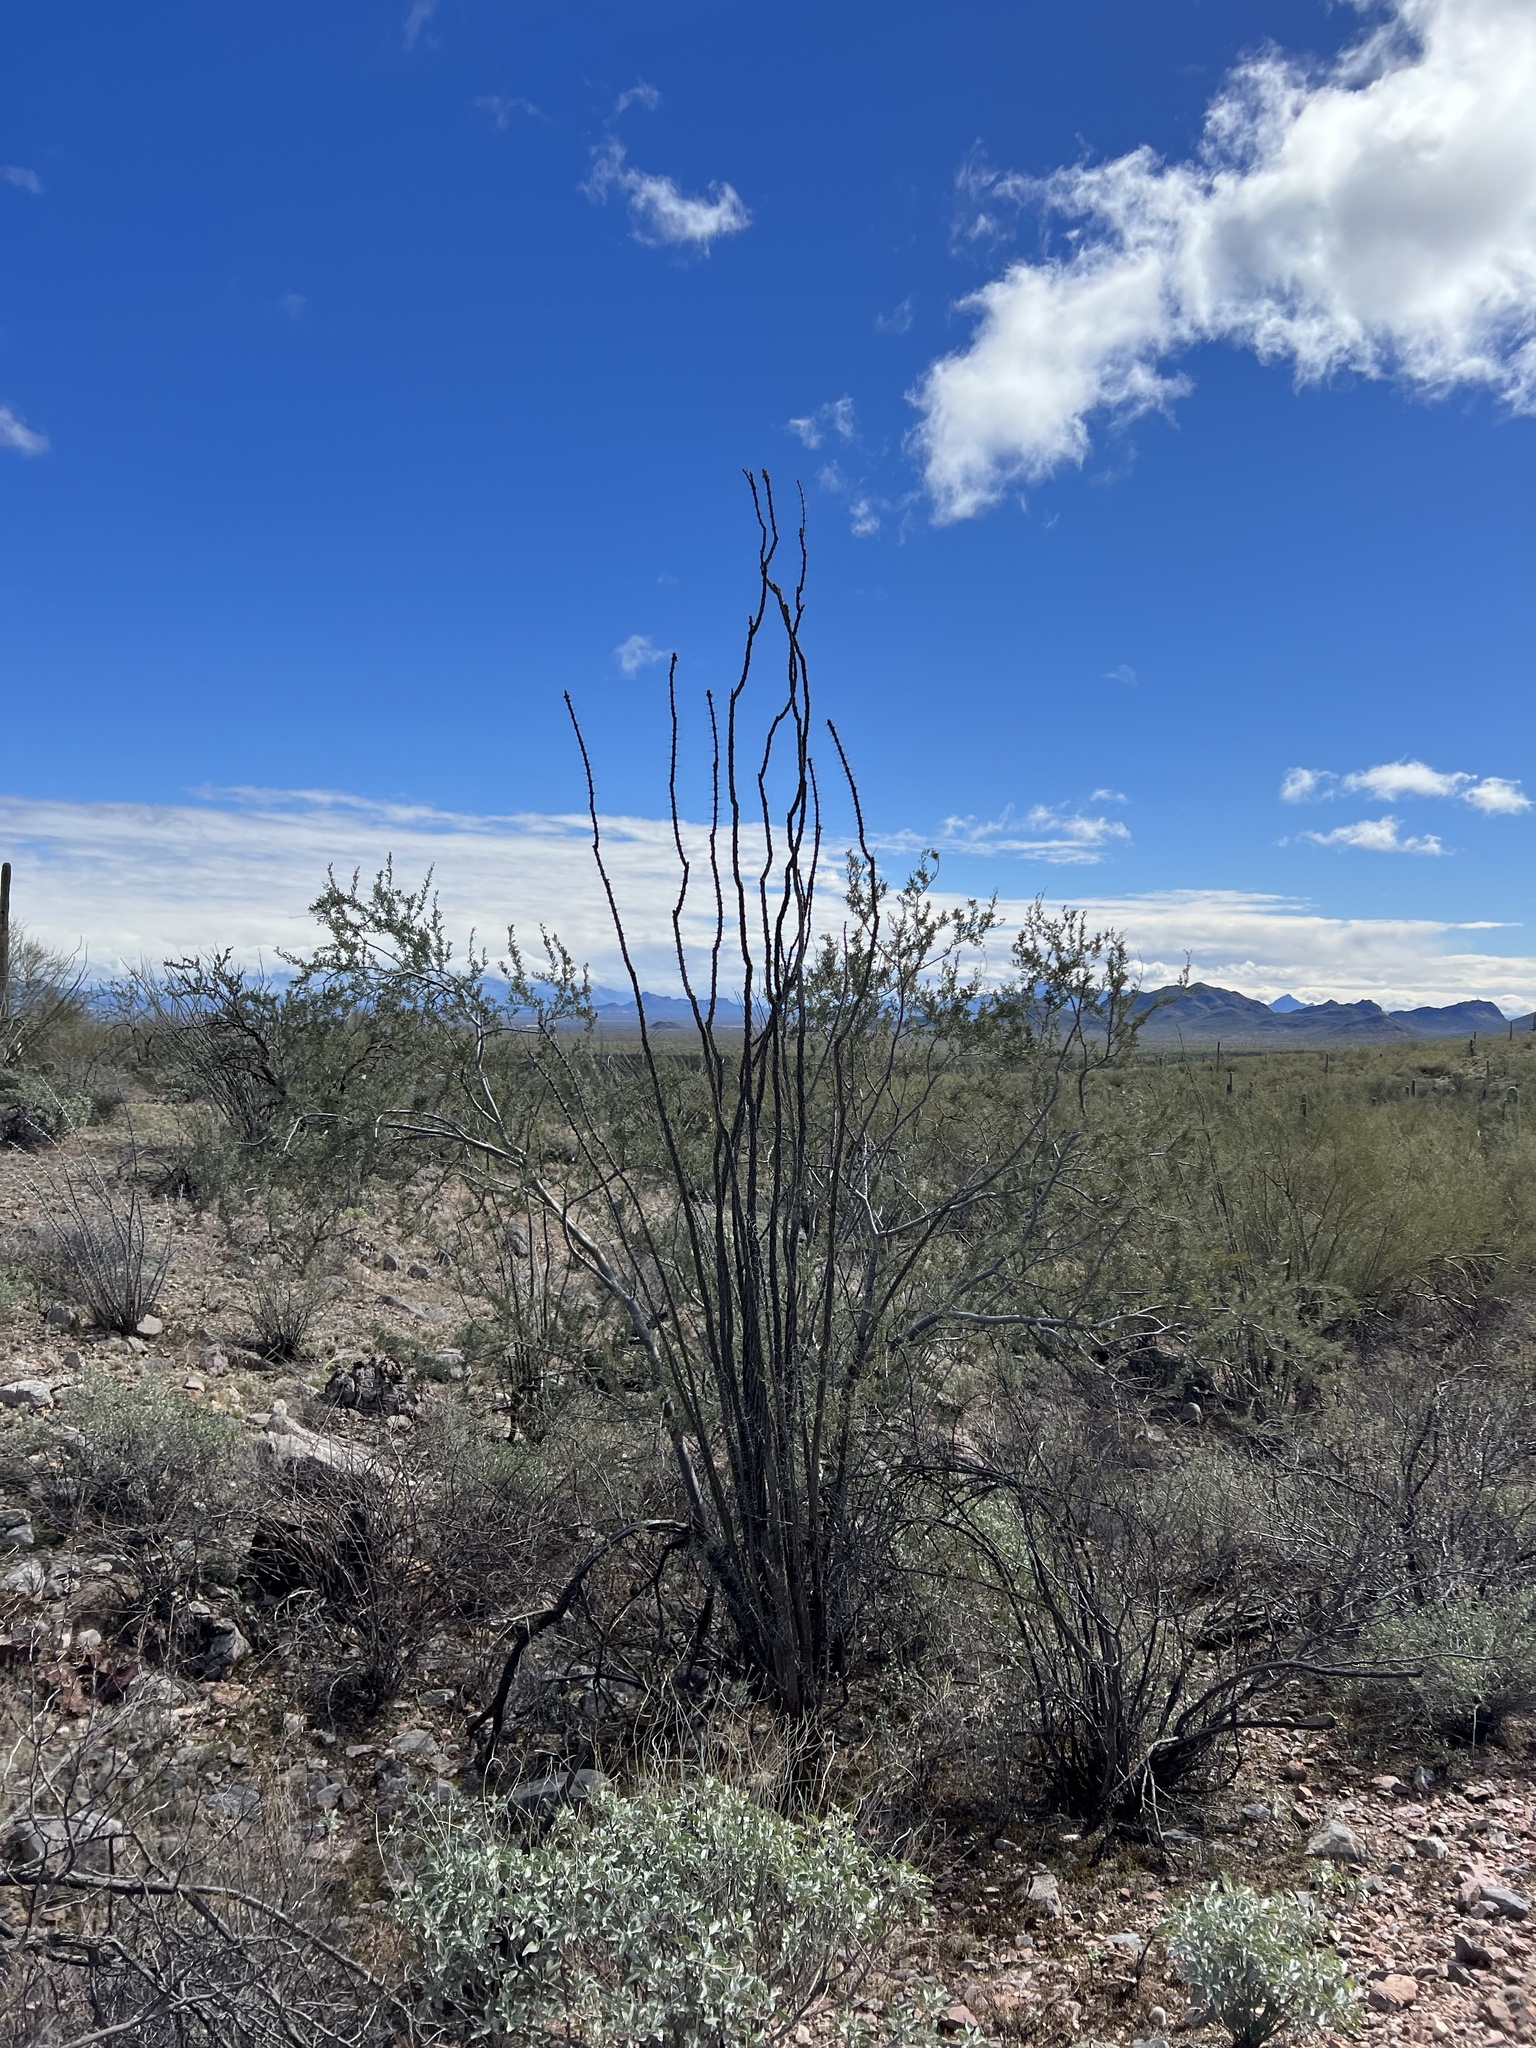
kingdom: Plantae
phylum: Tracheophyta
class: Magnoliopsida
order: Ericales
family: Fouquieriaceae
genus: Fouquieria
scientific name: Fouquieria splendens
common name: Vine-cactus
